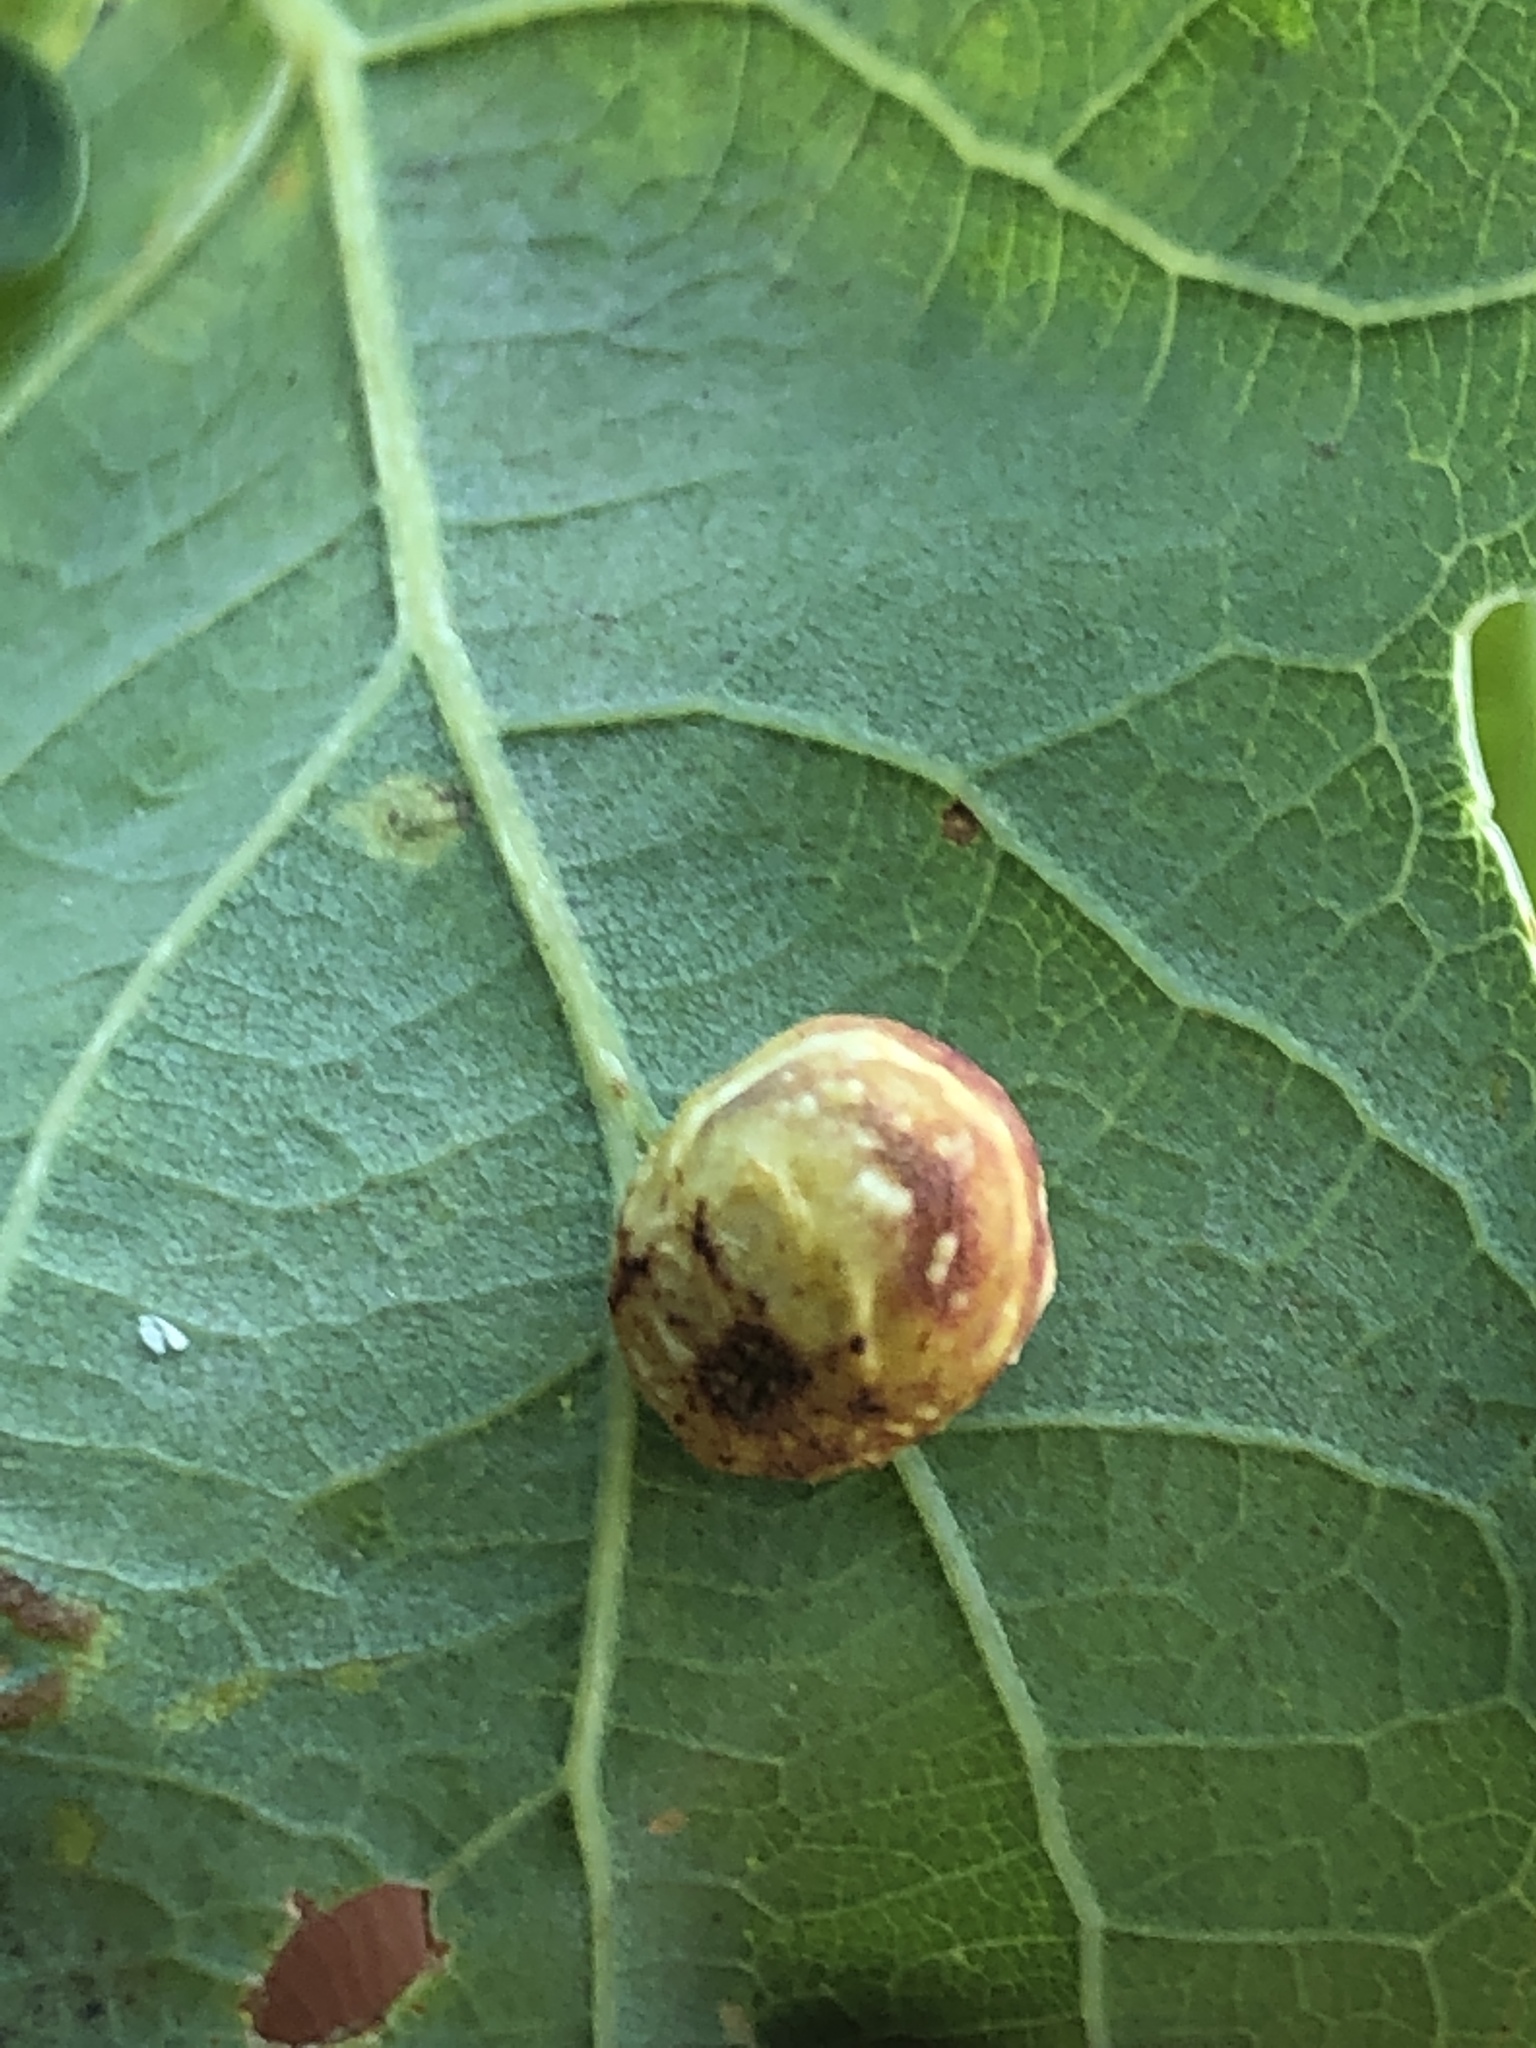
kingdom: Animalia
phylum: Arthropoda
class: Insecta
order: Hymenoptera
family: Cynipidae
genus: Cynips
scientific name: Cynips longiventris
